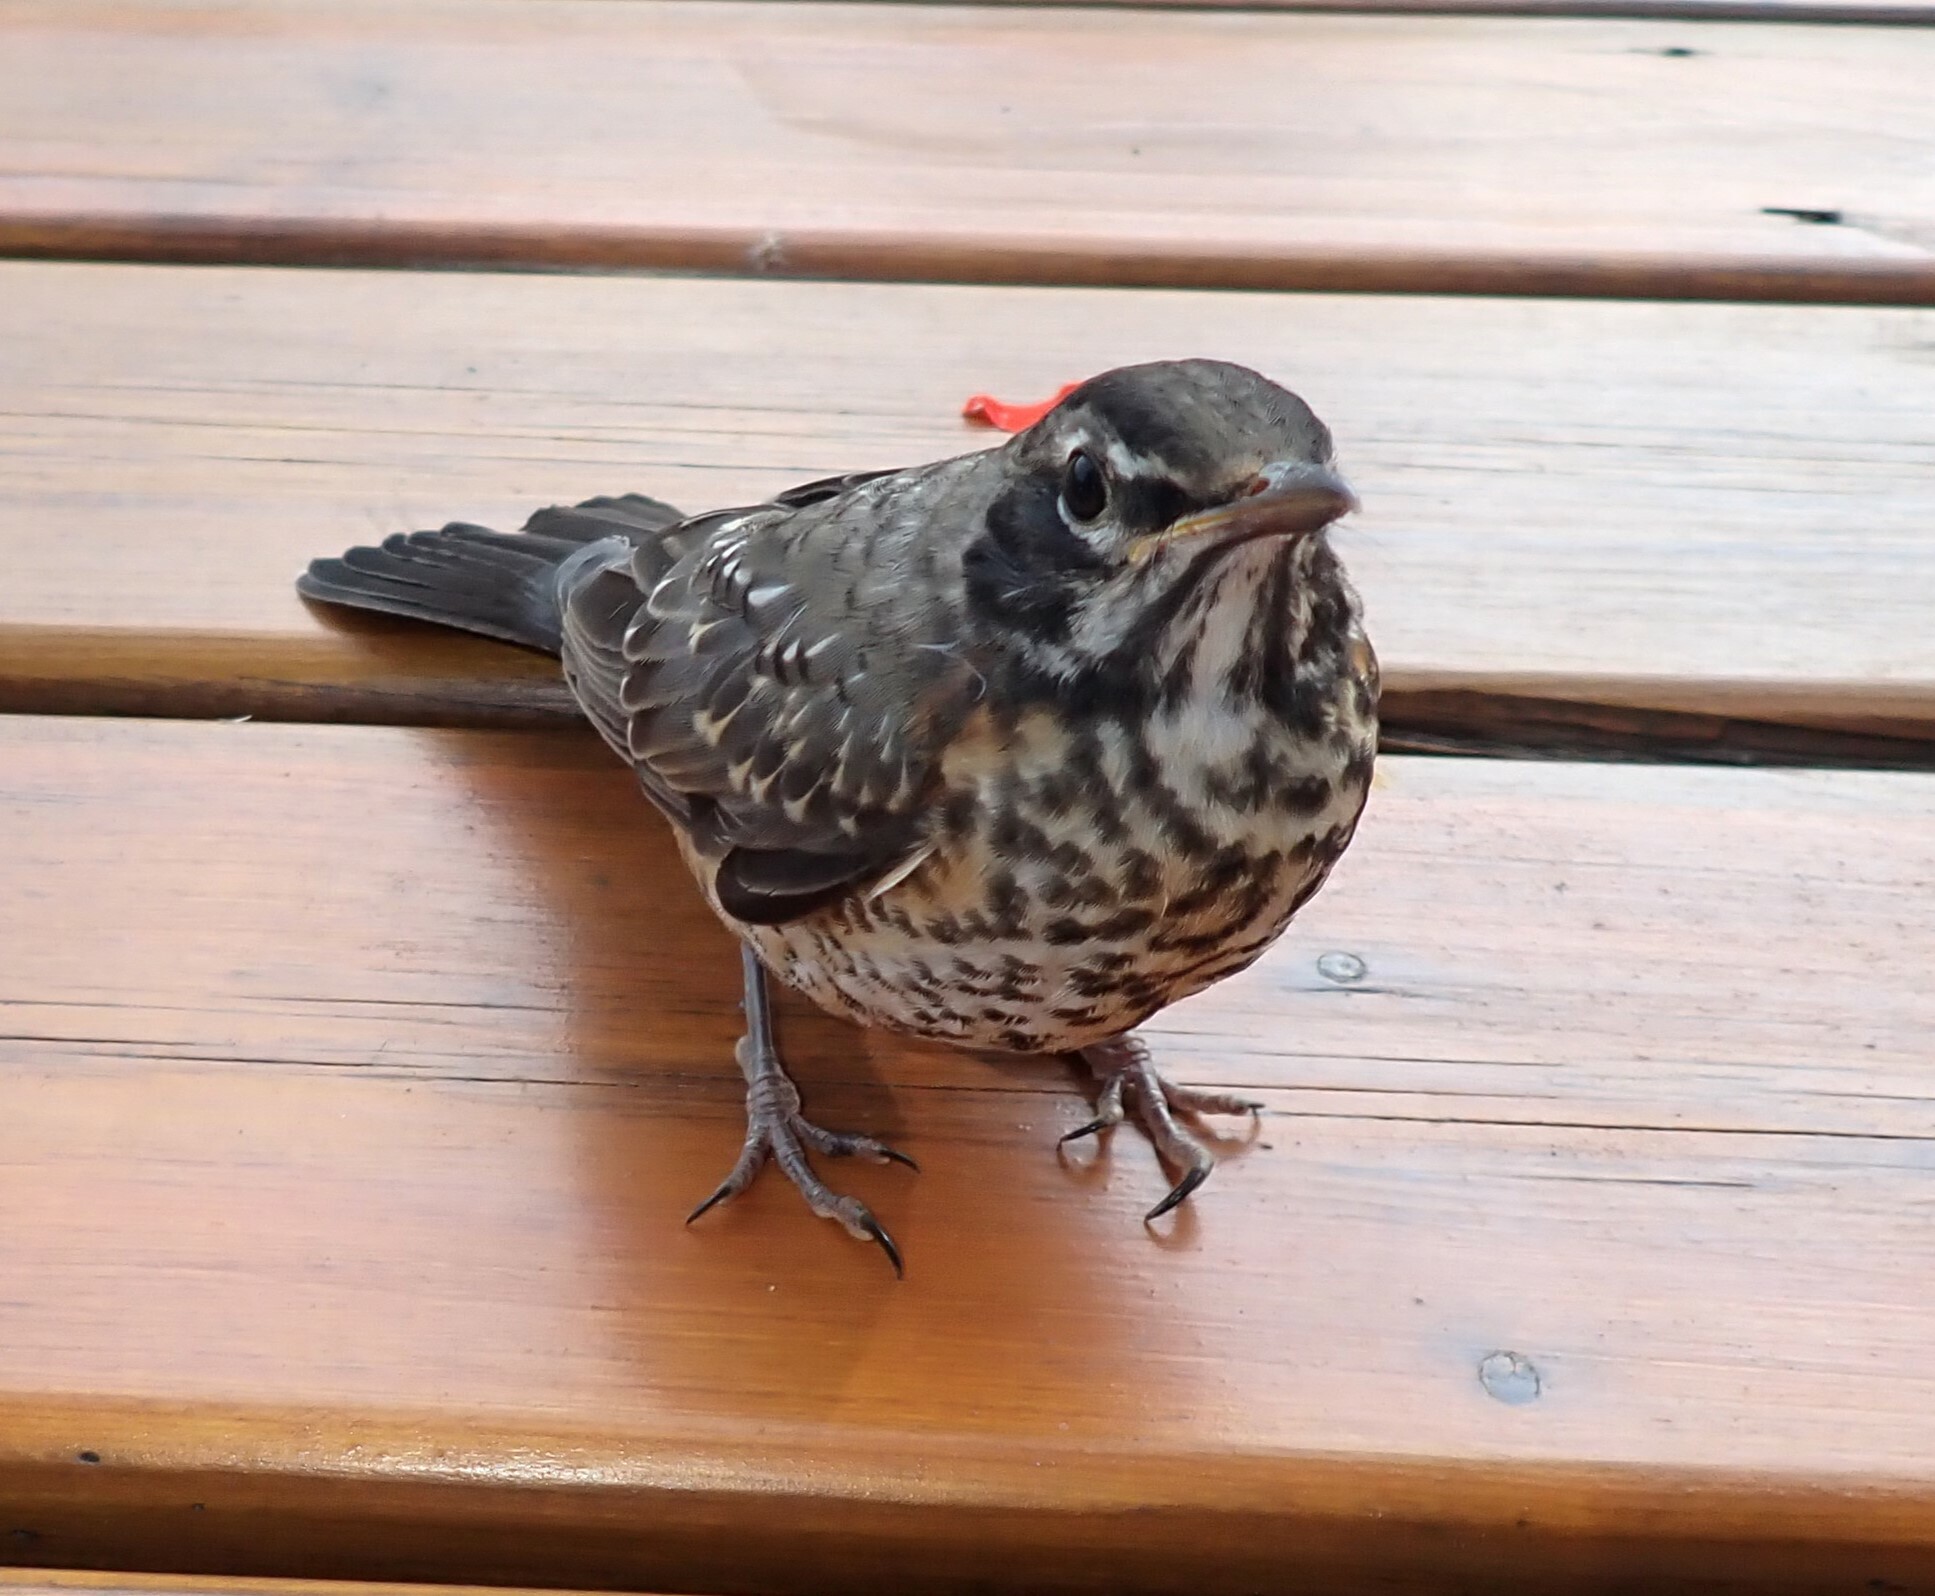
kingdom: Animalia
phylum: Chordata
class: Aves
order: Passeriformes
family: Turdidae
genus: Turdus
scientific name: Turdus migratorius
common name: American robin
